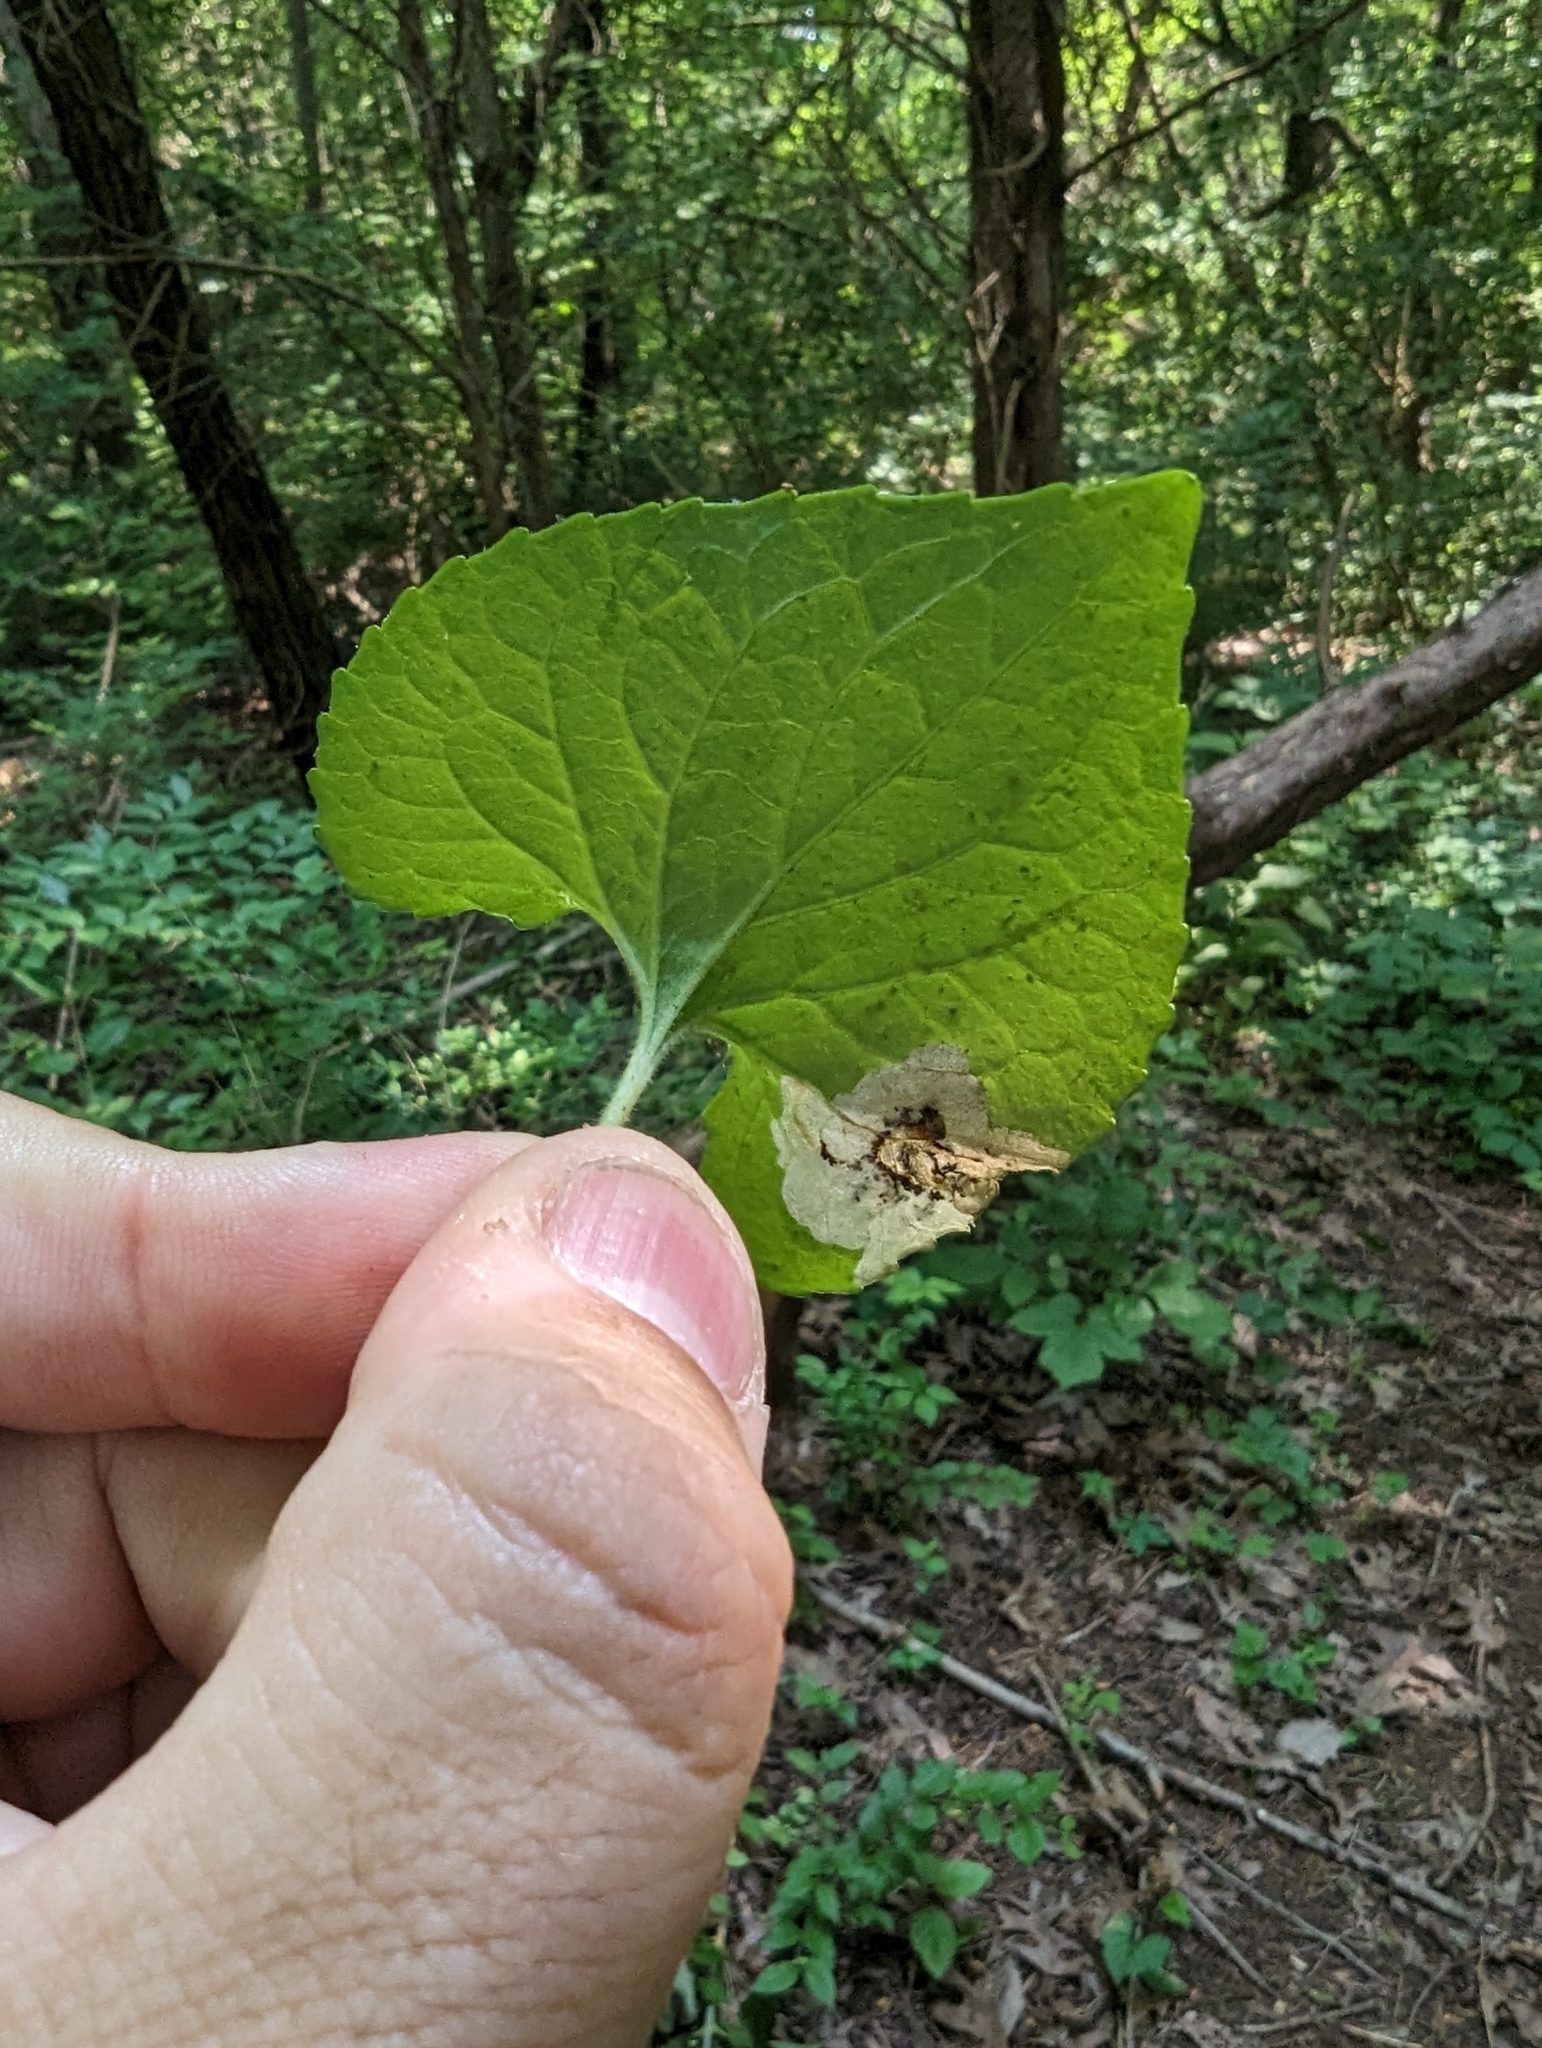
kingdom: Animalia
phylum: Arthropoda
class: Insecta
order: Hymenoptera
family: Tenthredinidae
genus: Nefusa
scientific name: Nefusa ambigua
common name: Violet leafmining sawfly
